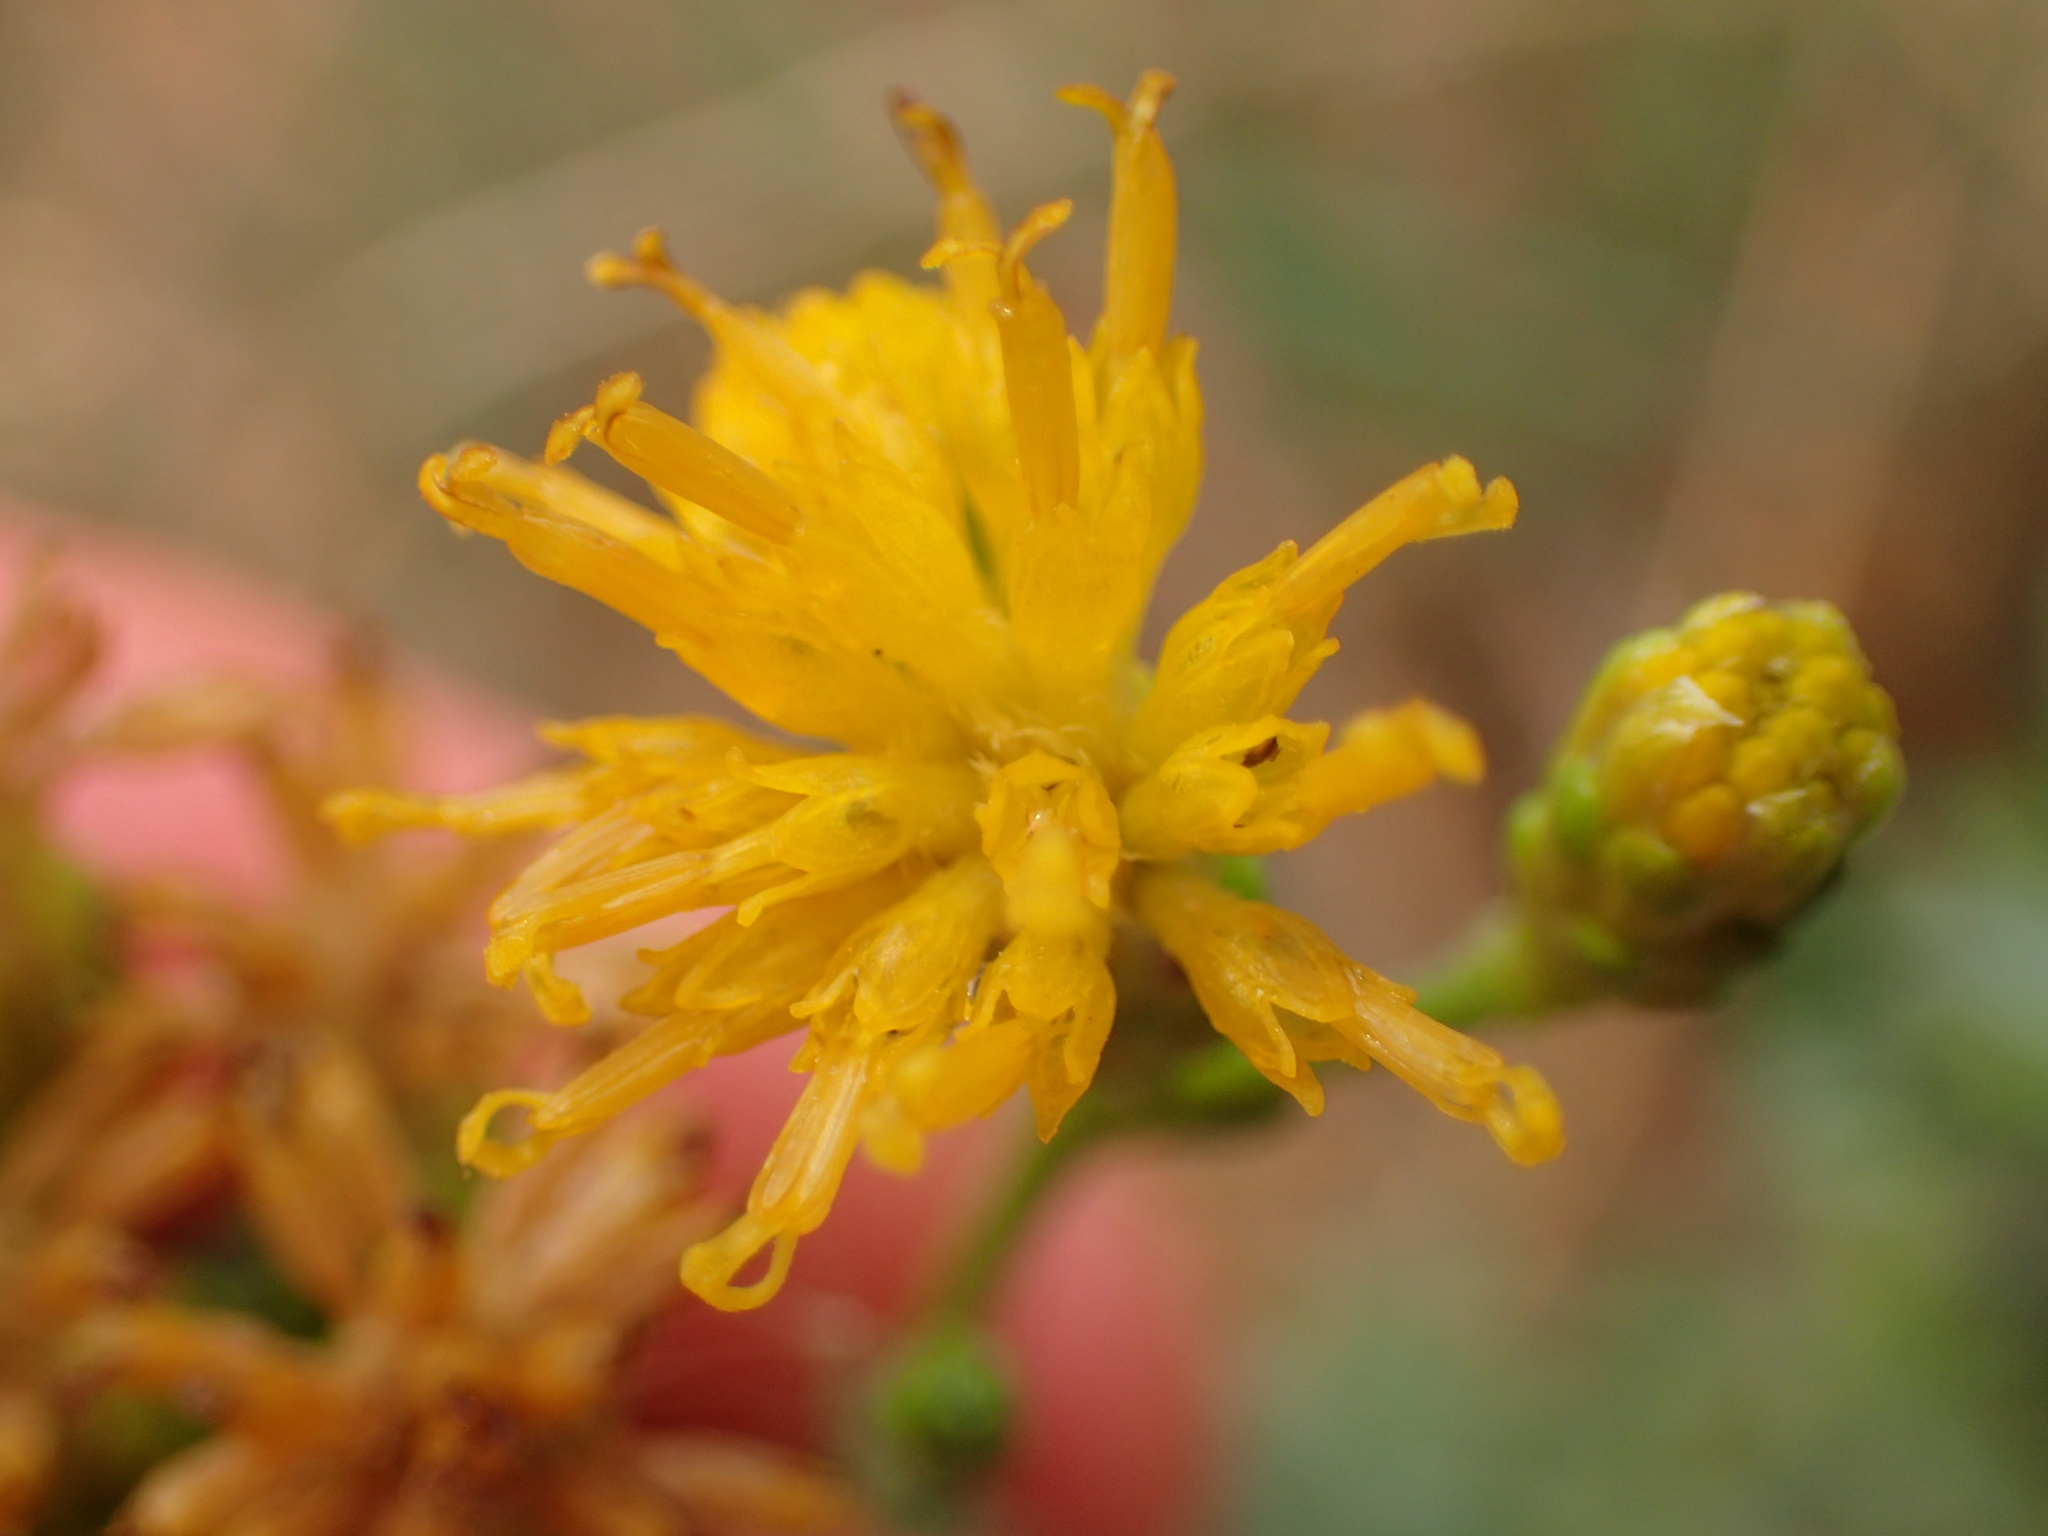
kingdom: Plantae
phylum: Tracheophyta
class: Magnoliopsida
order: Asterales
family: Asteraceae
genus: Isocoma
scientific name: Isocoma menziesii
